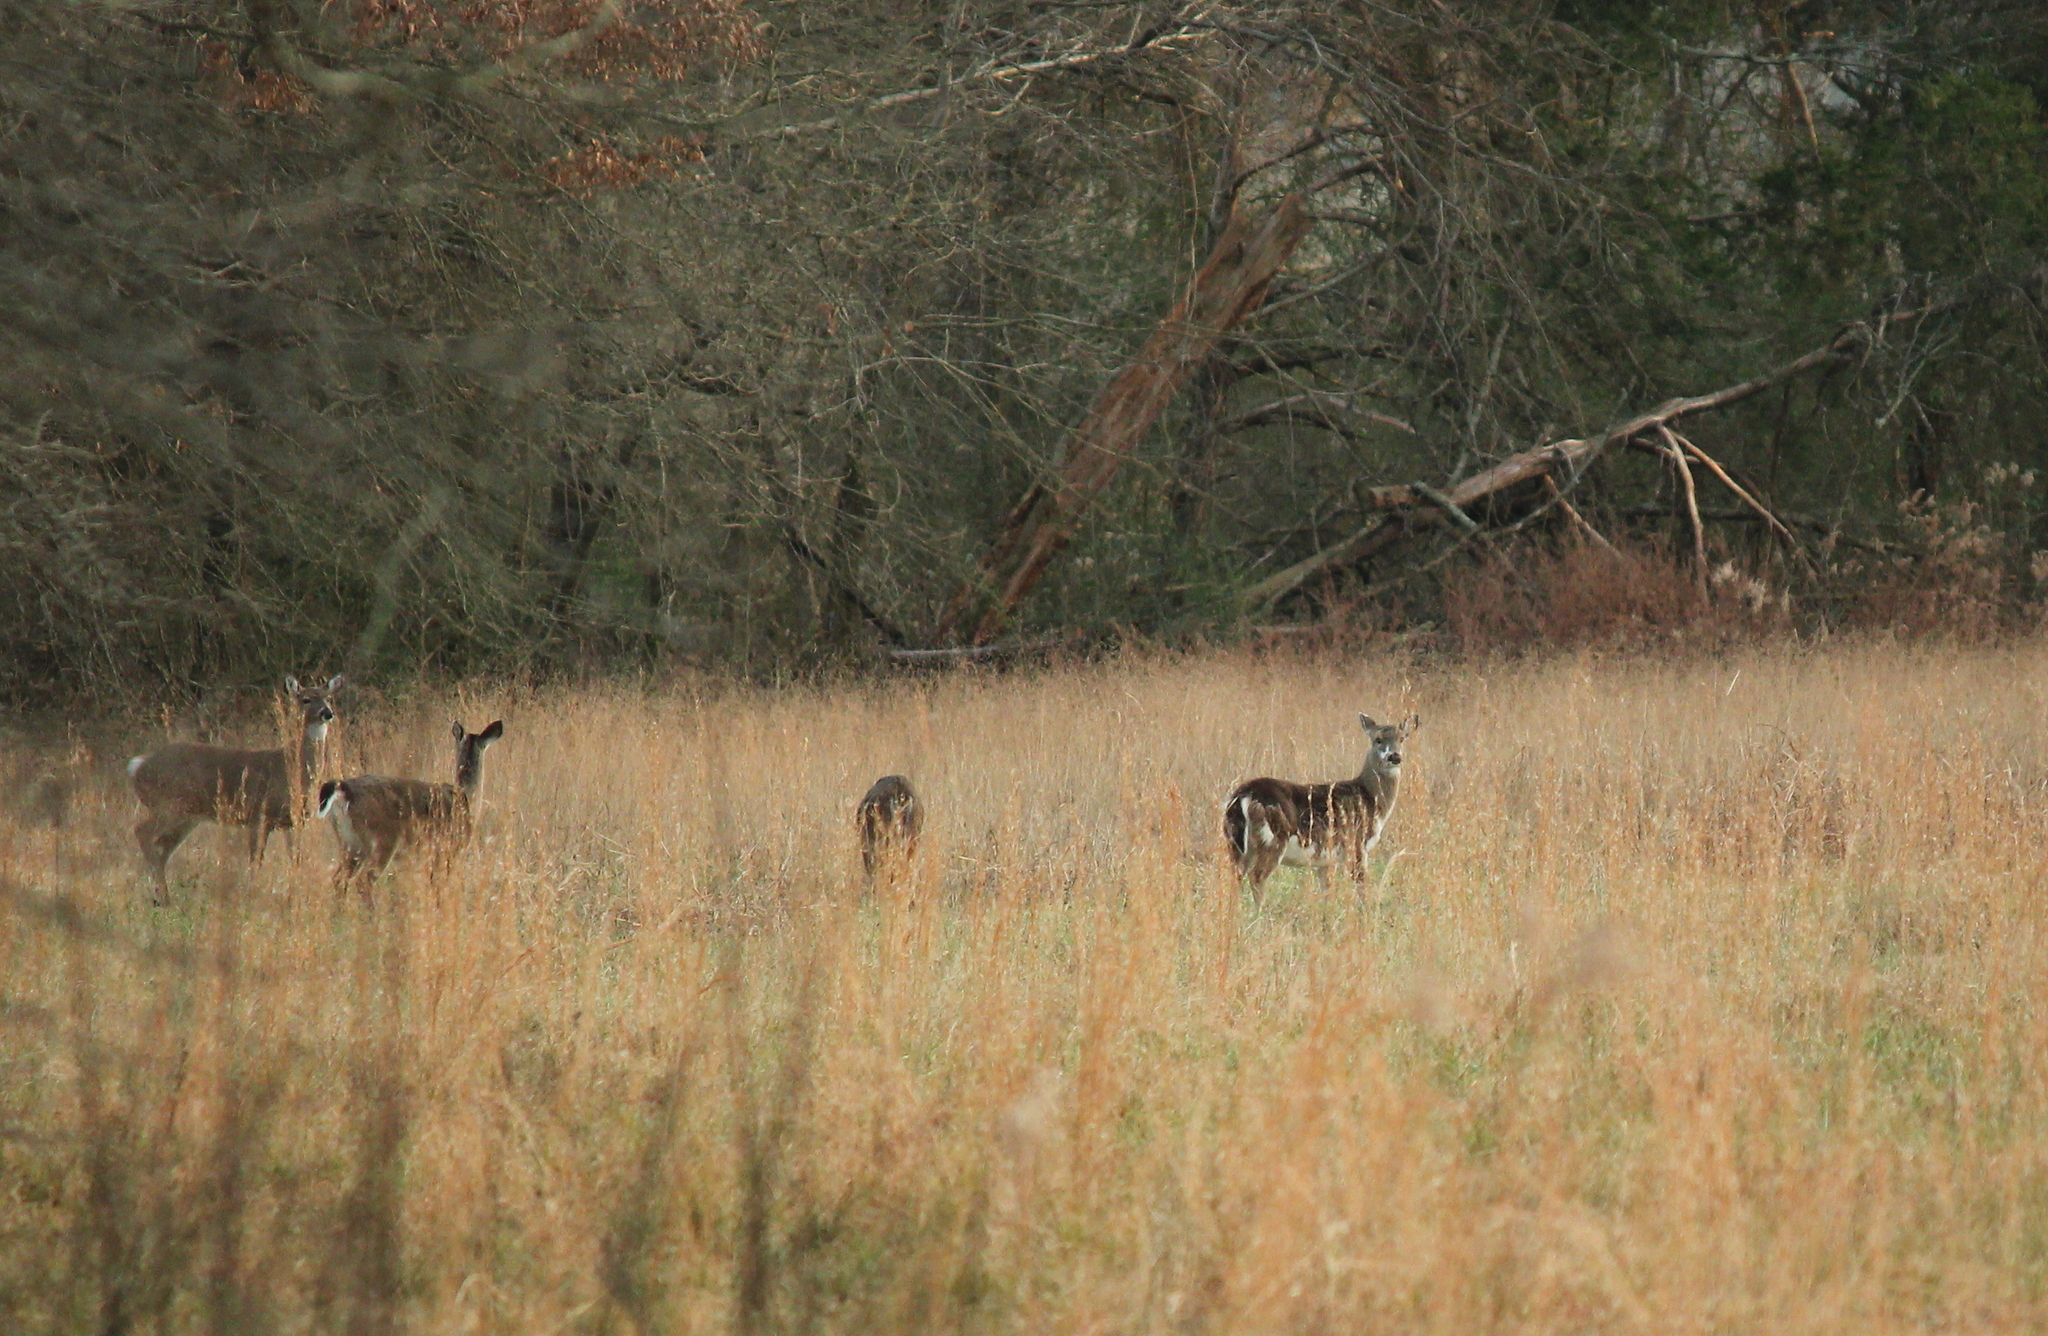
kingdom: Animalia
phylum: Chordata
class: Mammalia
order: Artiodactyla
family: Cervidae
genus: Odocoileus
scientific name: Odocoileus virginianus
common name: White-tailed deer
